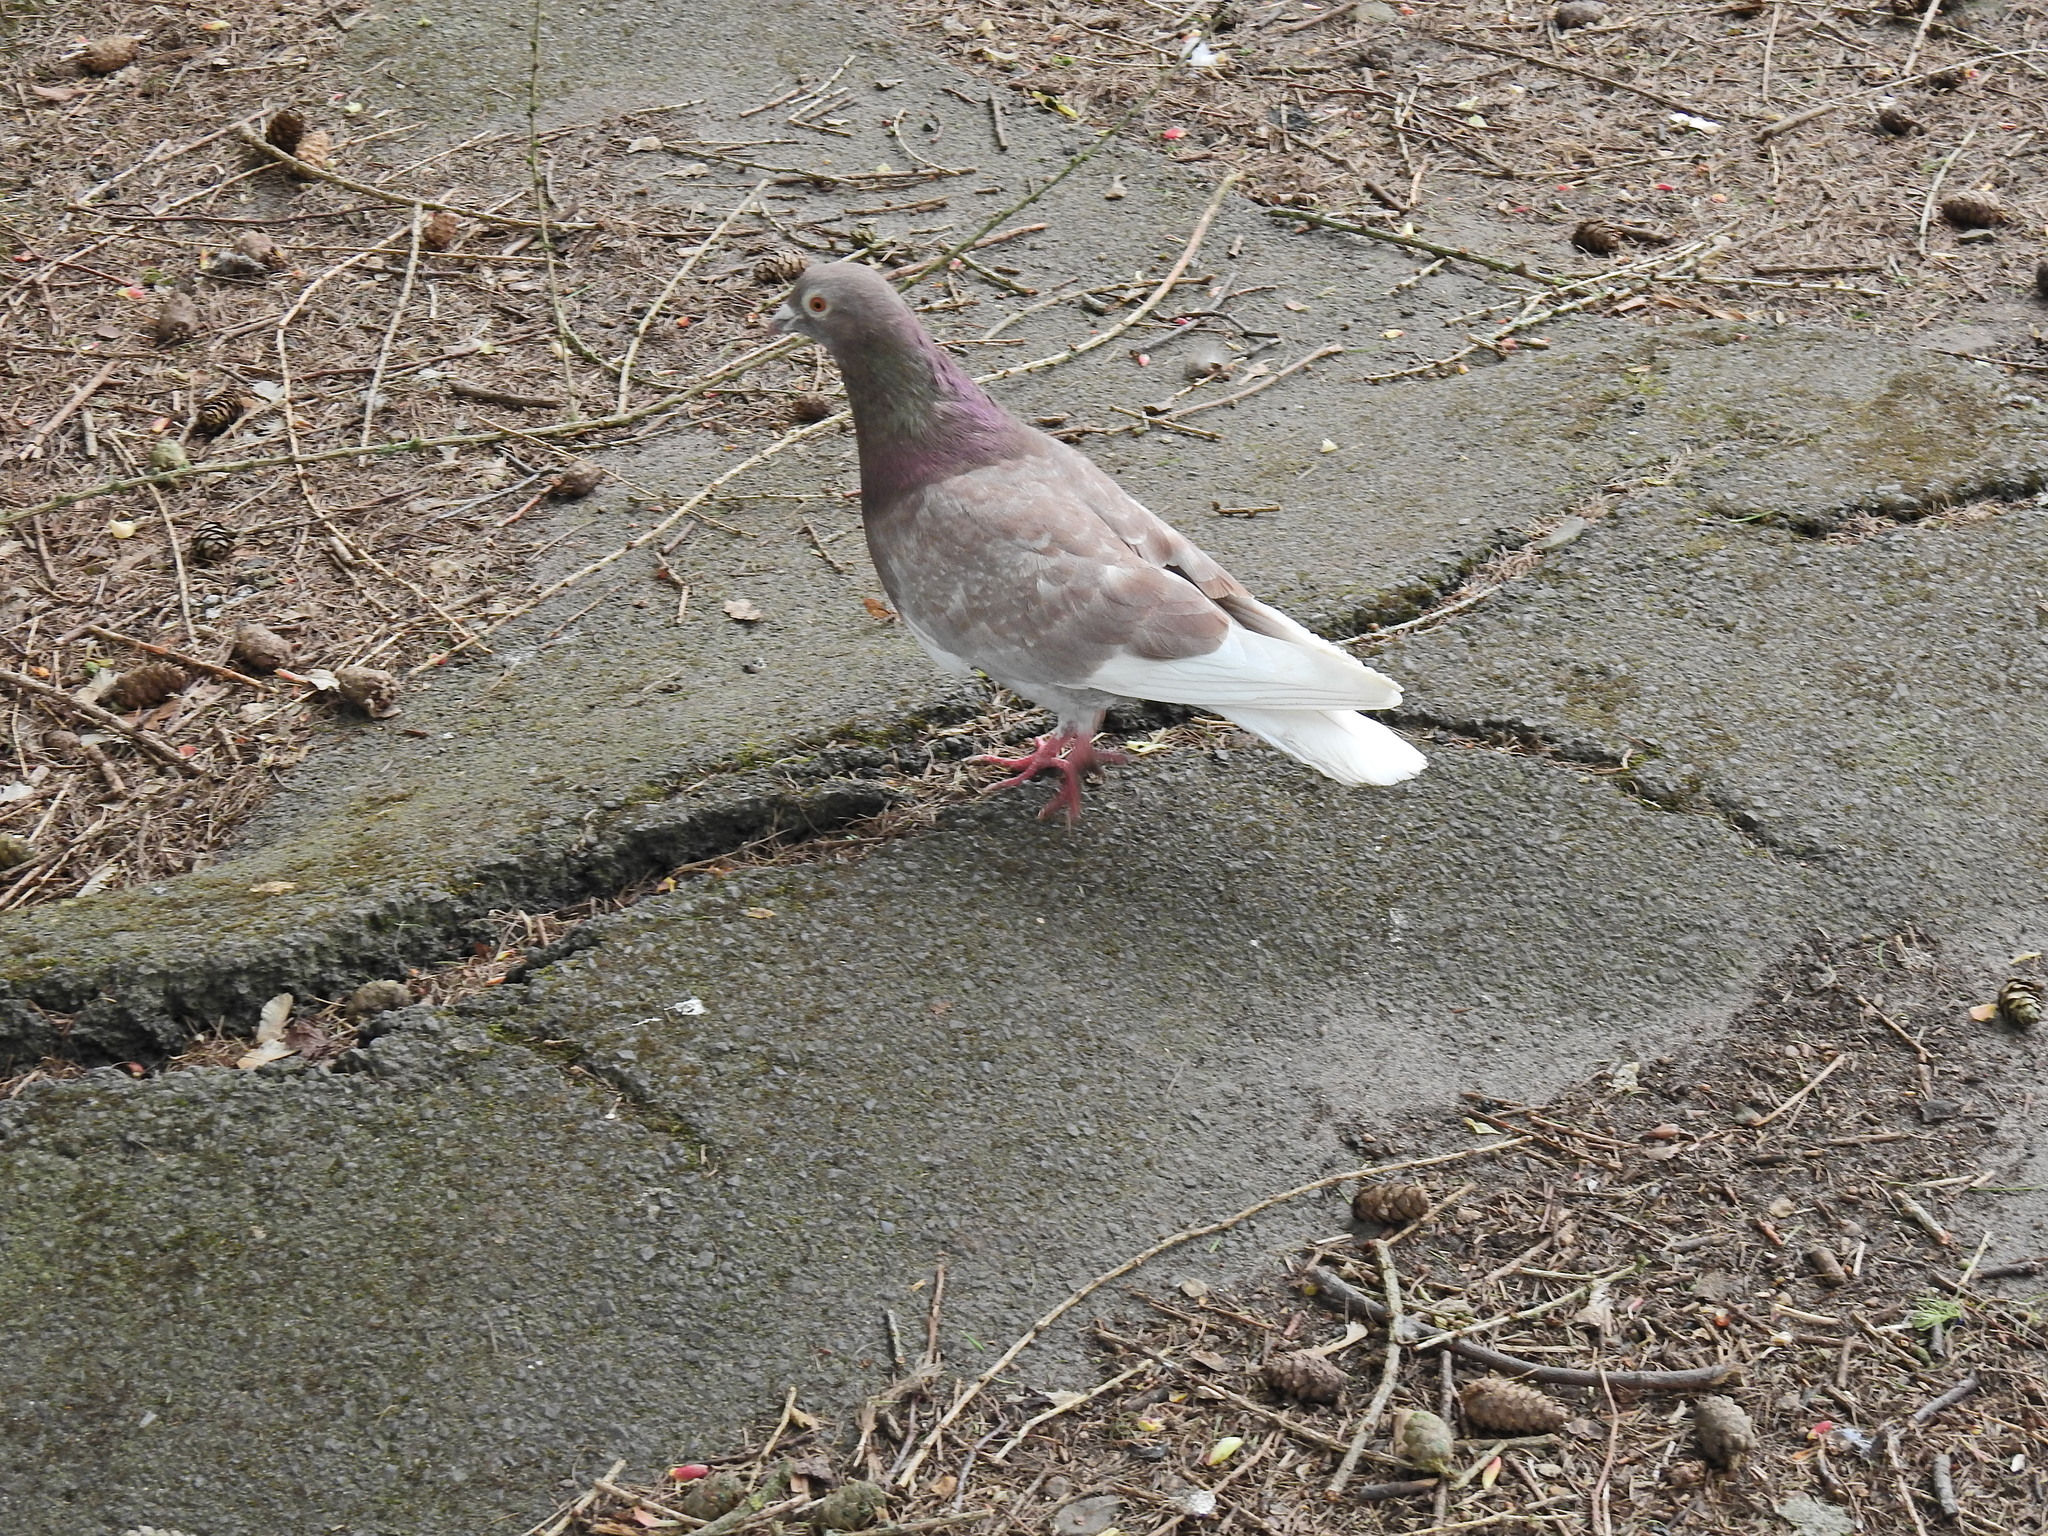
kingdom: Animalia
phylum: Chordata
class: Aves
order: Columbiformes
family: Columbidae
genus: Columba
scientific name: Columba livia
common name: Rock pigeon
